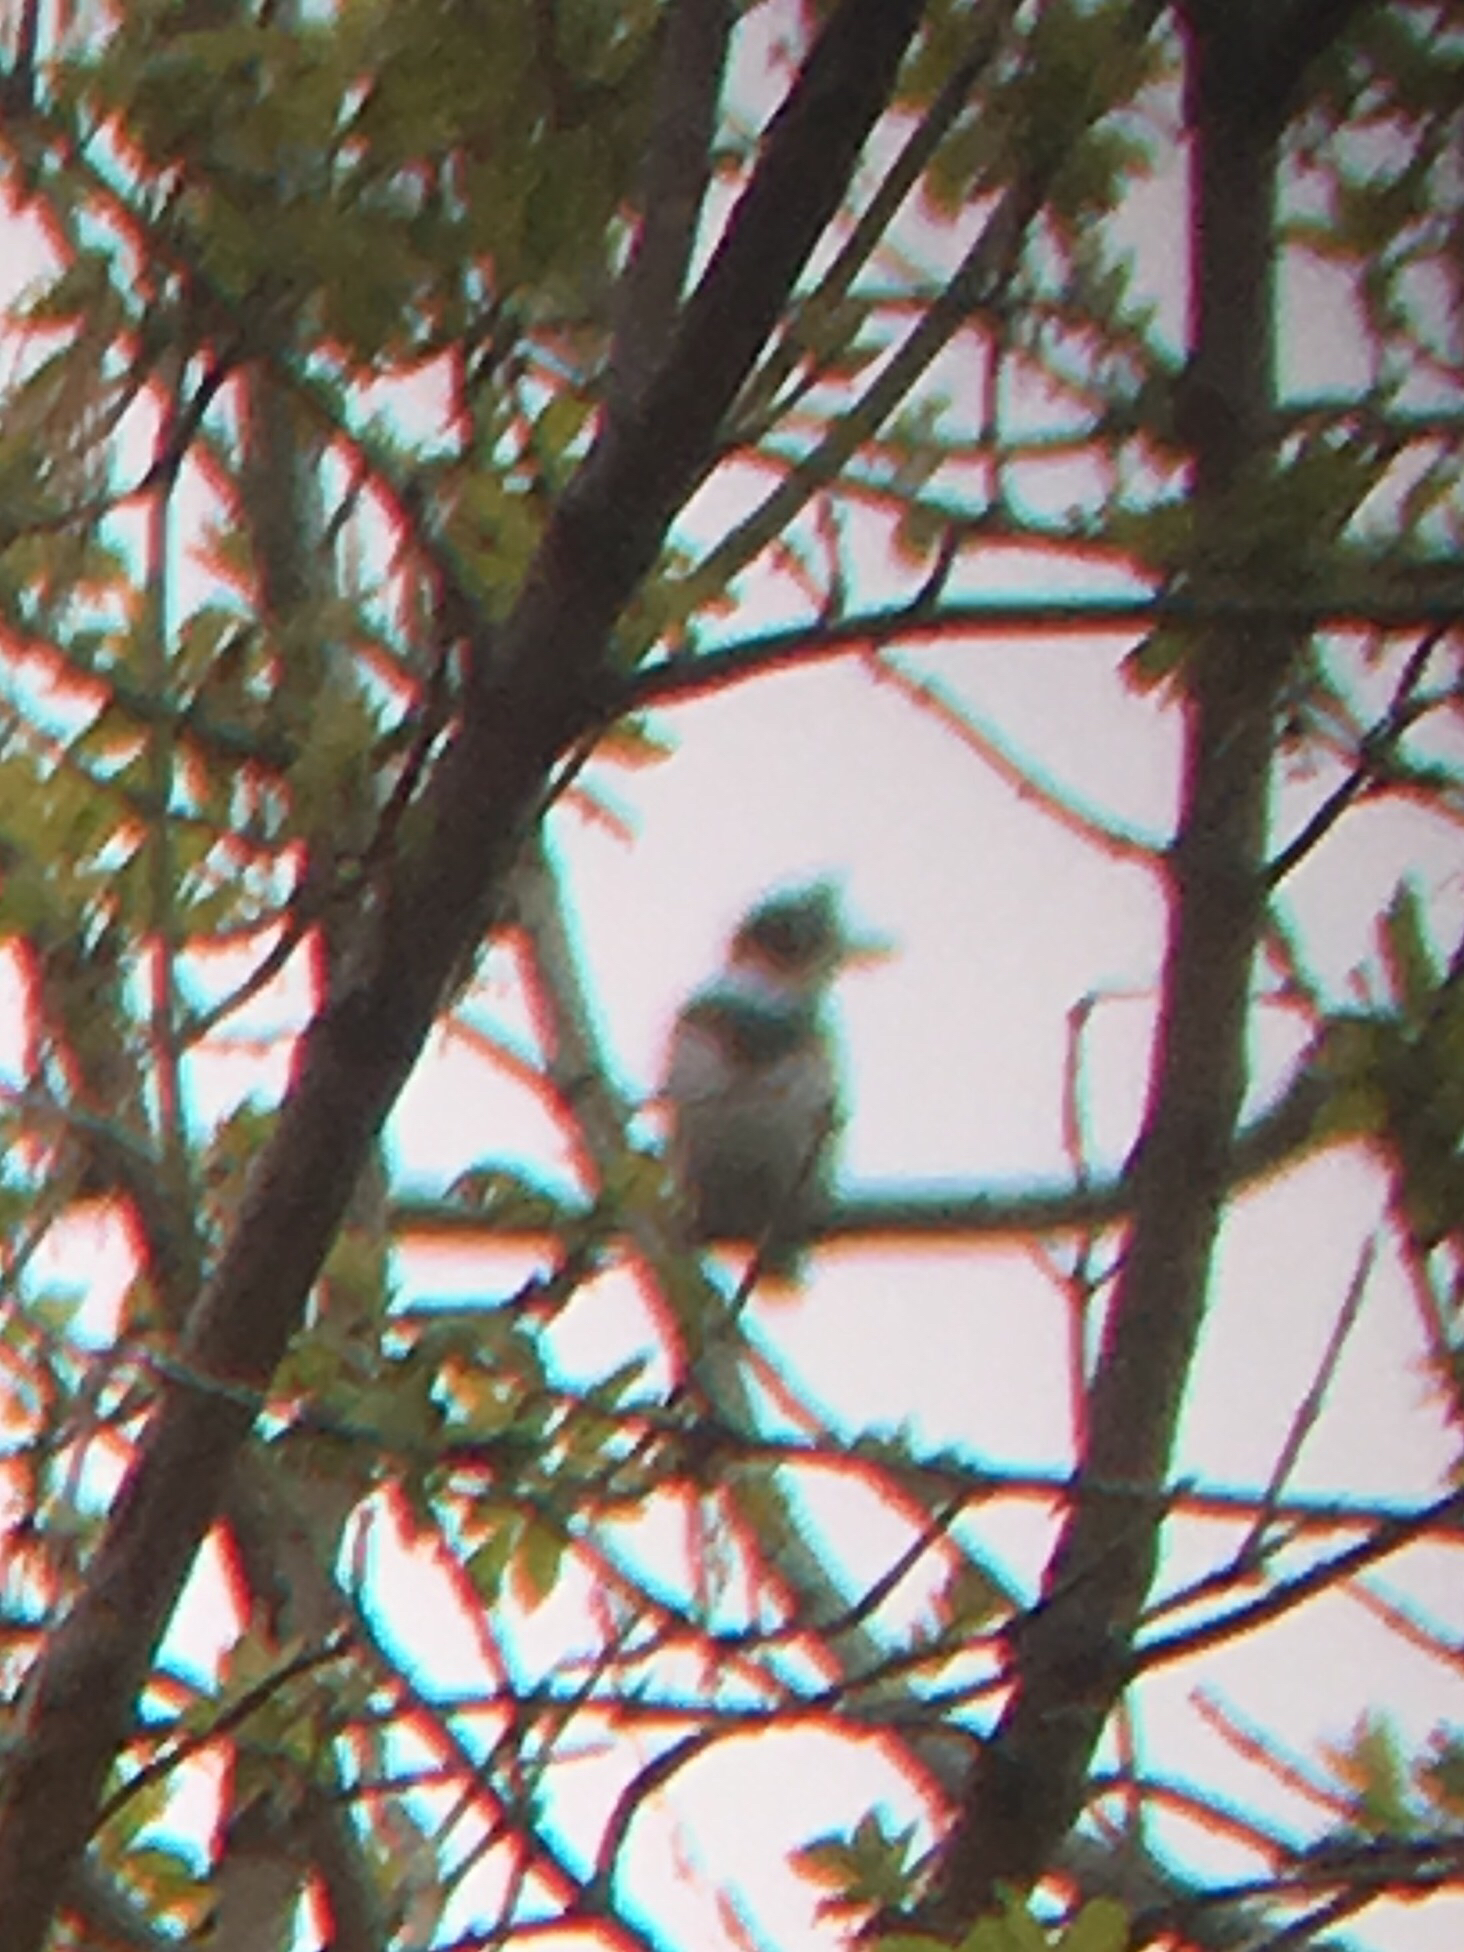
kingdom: Animalia
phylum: Chordata
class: Aves
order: Coraciiformes
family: Alcedinidae
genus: Megaceryle
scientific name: Megaceryle alcyon
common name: Belted kingfisher
